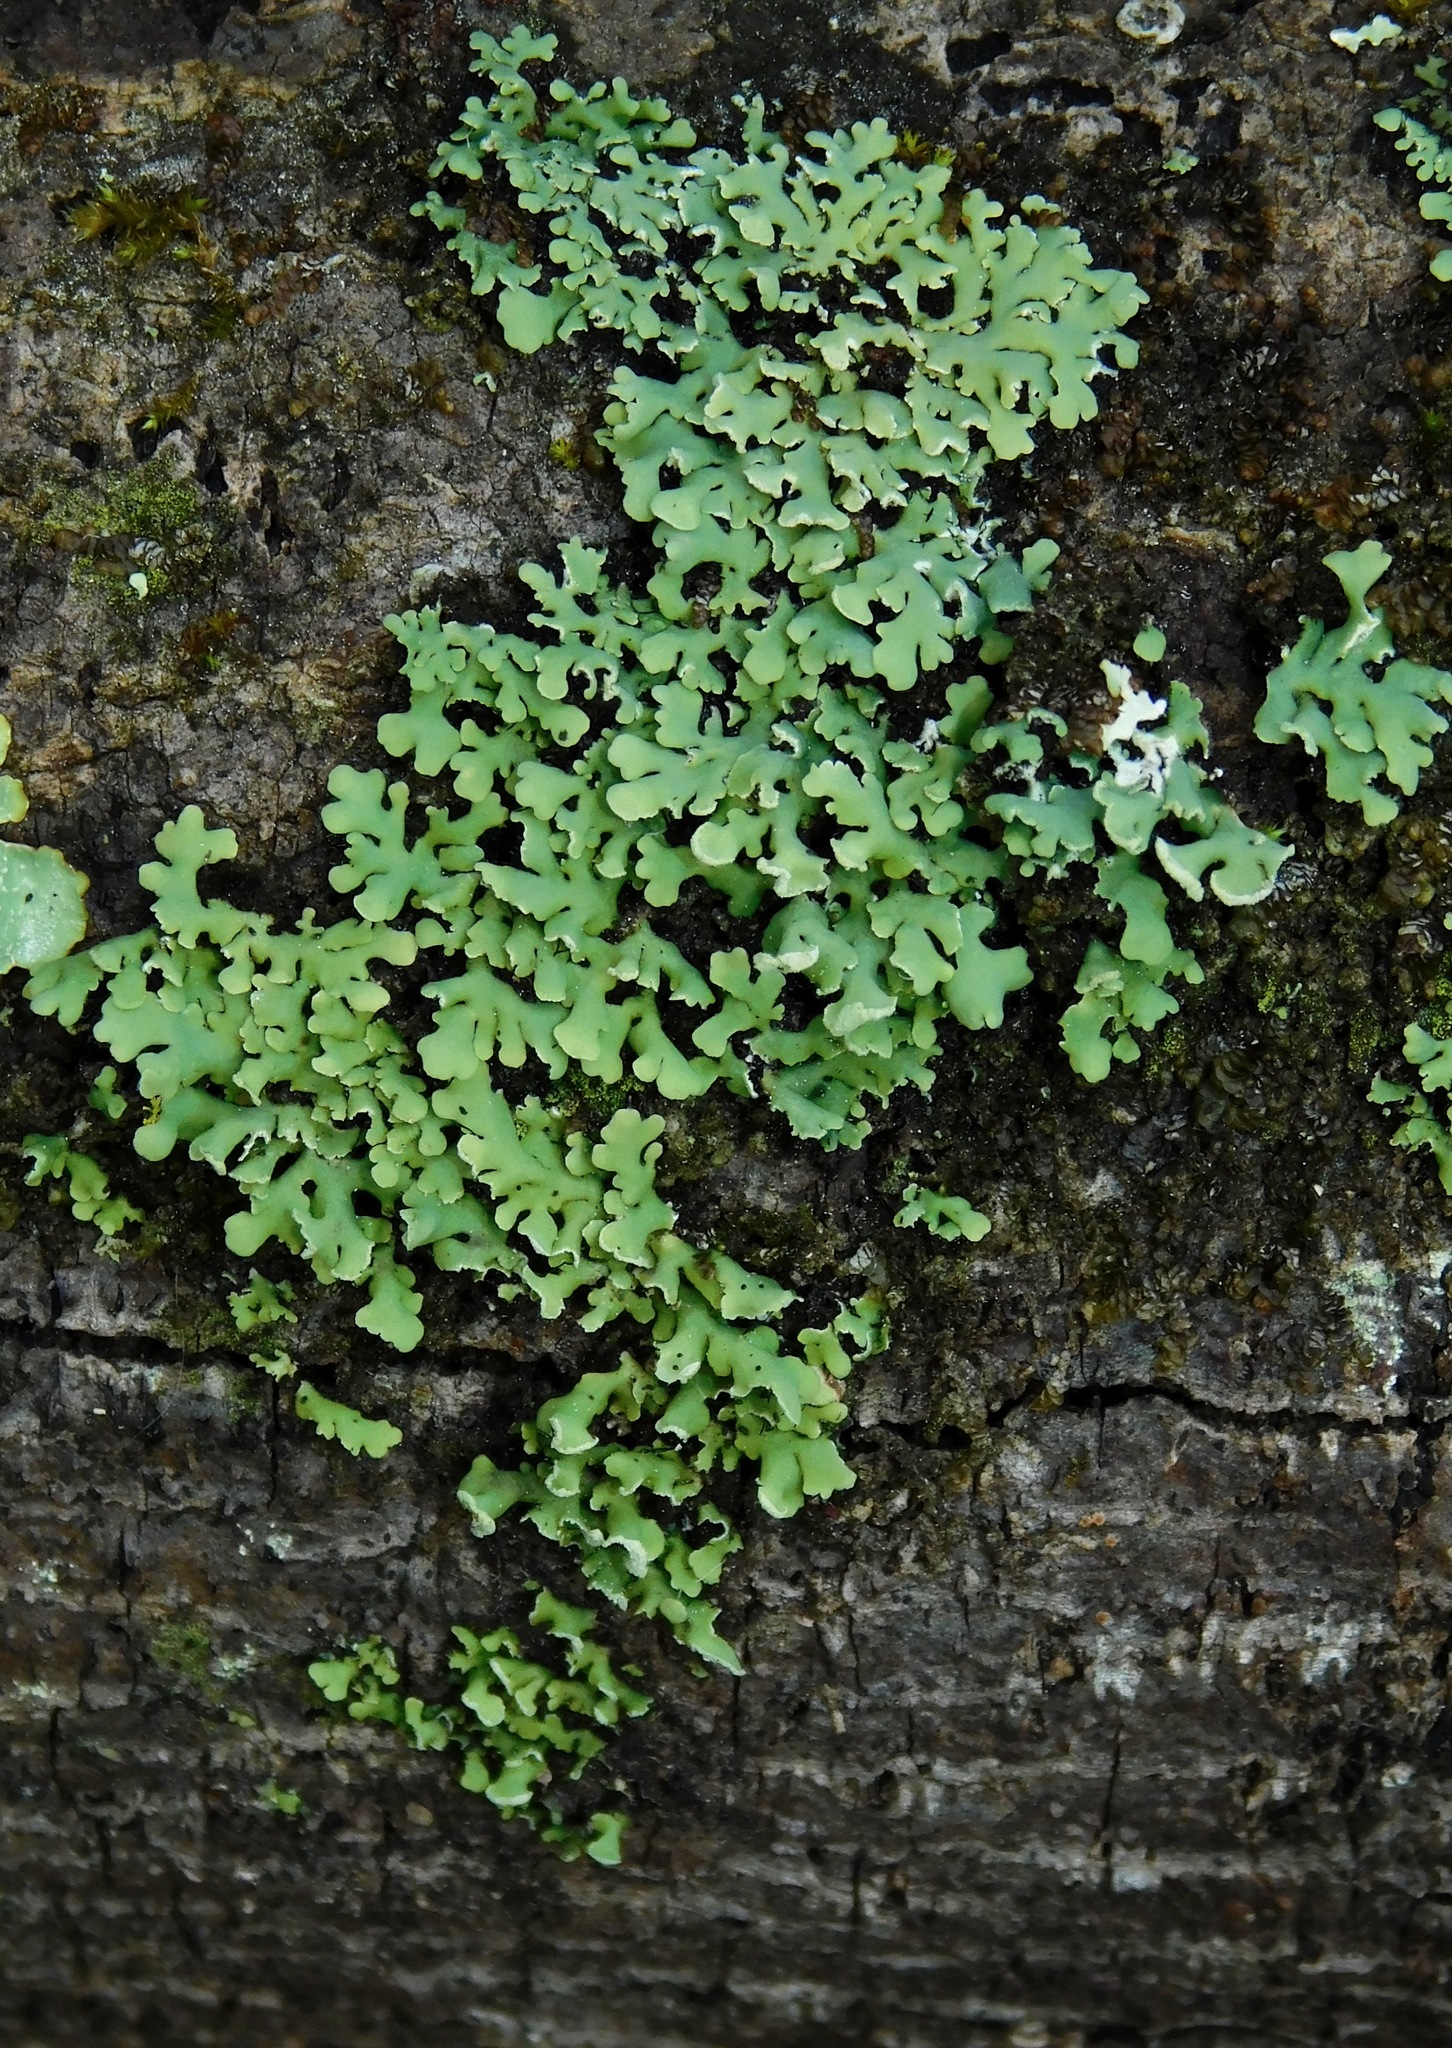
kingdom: Fungi
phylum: Ascomycota
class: Lecanoromycetes
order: Caliciales
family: Physciaceae
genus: Polyblastidium
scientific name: Polyblastidium japonicum
